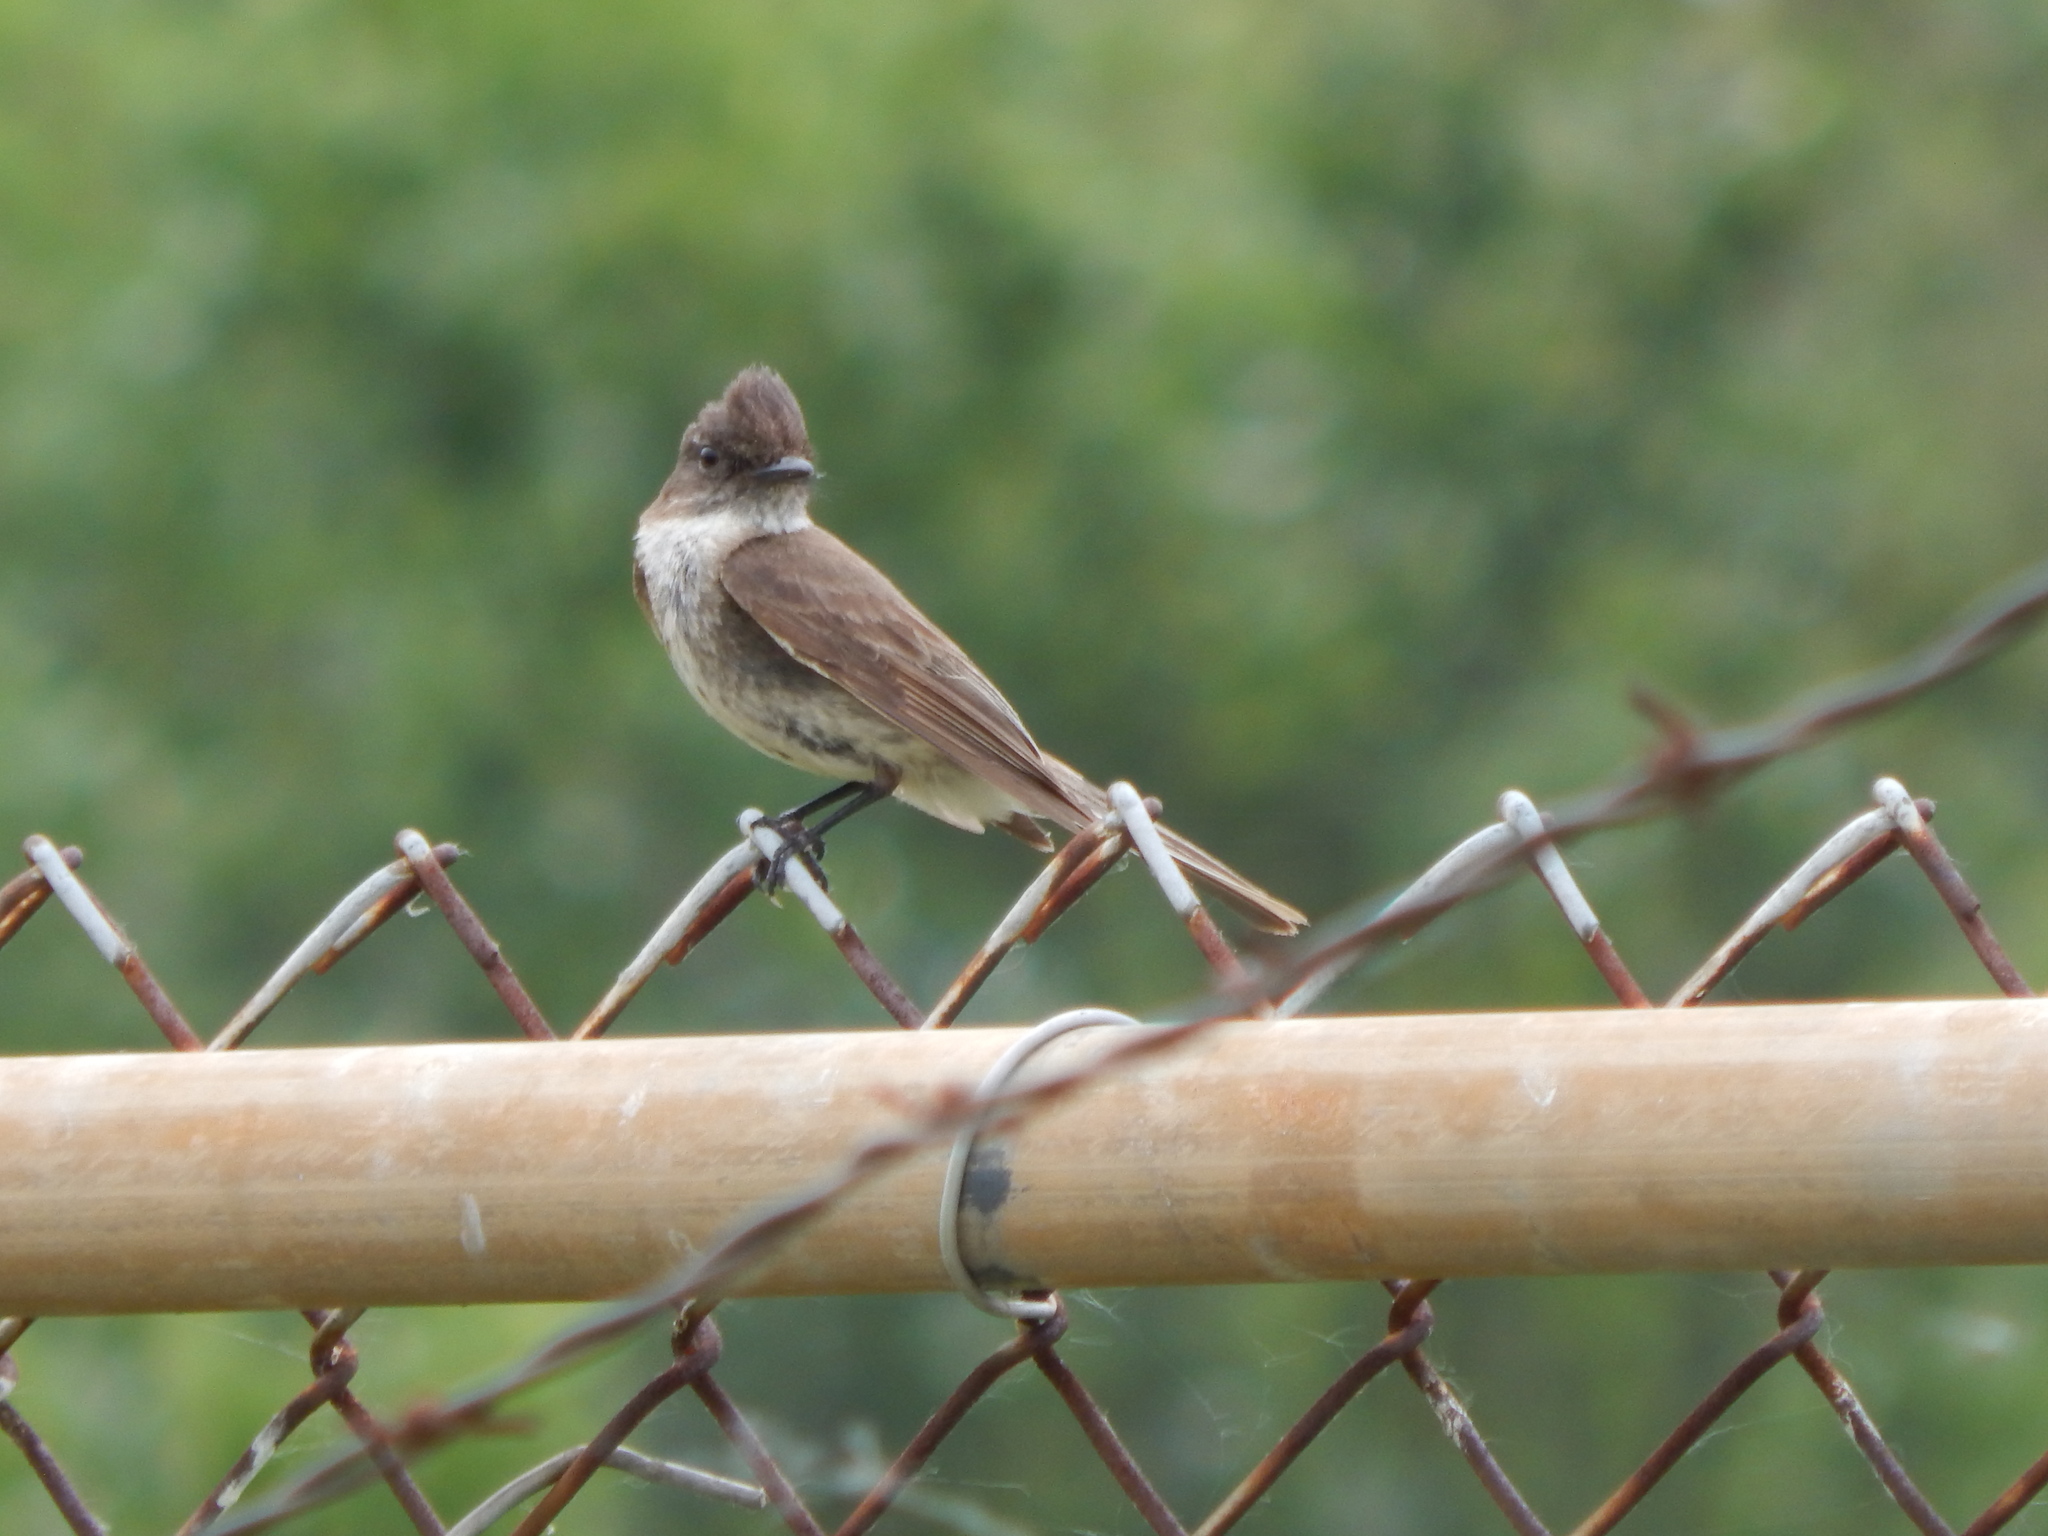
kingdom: Animalia
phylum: Chordata
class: Aves
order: Passeriformes
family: Tyrannidae
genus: Sayornis
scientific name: Sayornis phoebe
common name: Eastern phoebe
